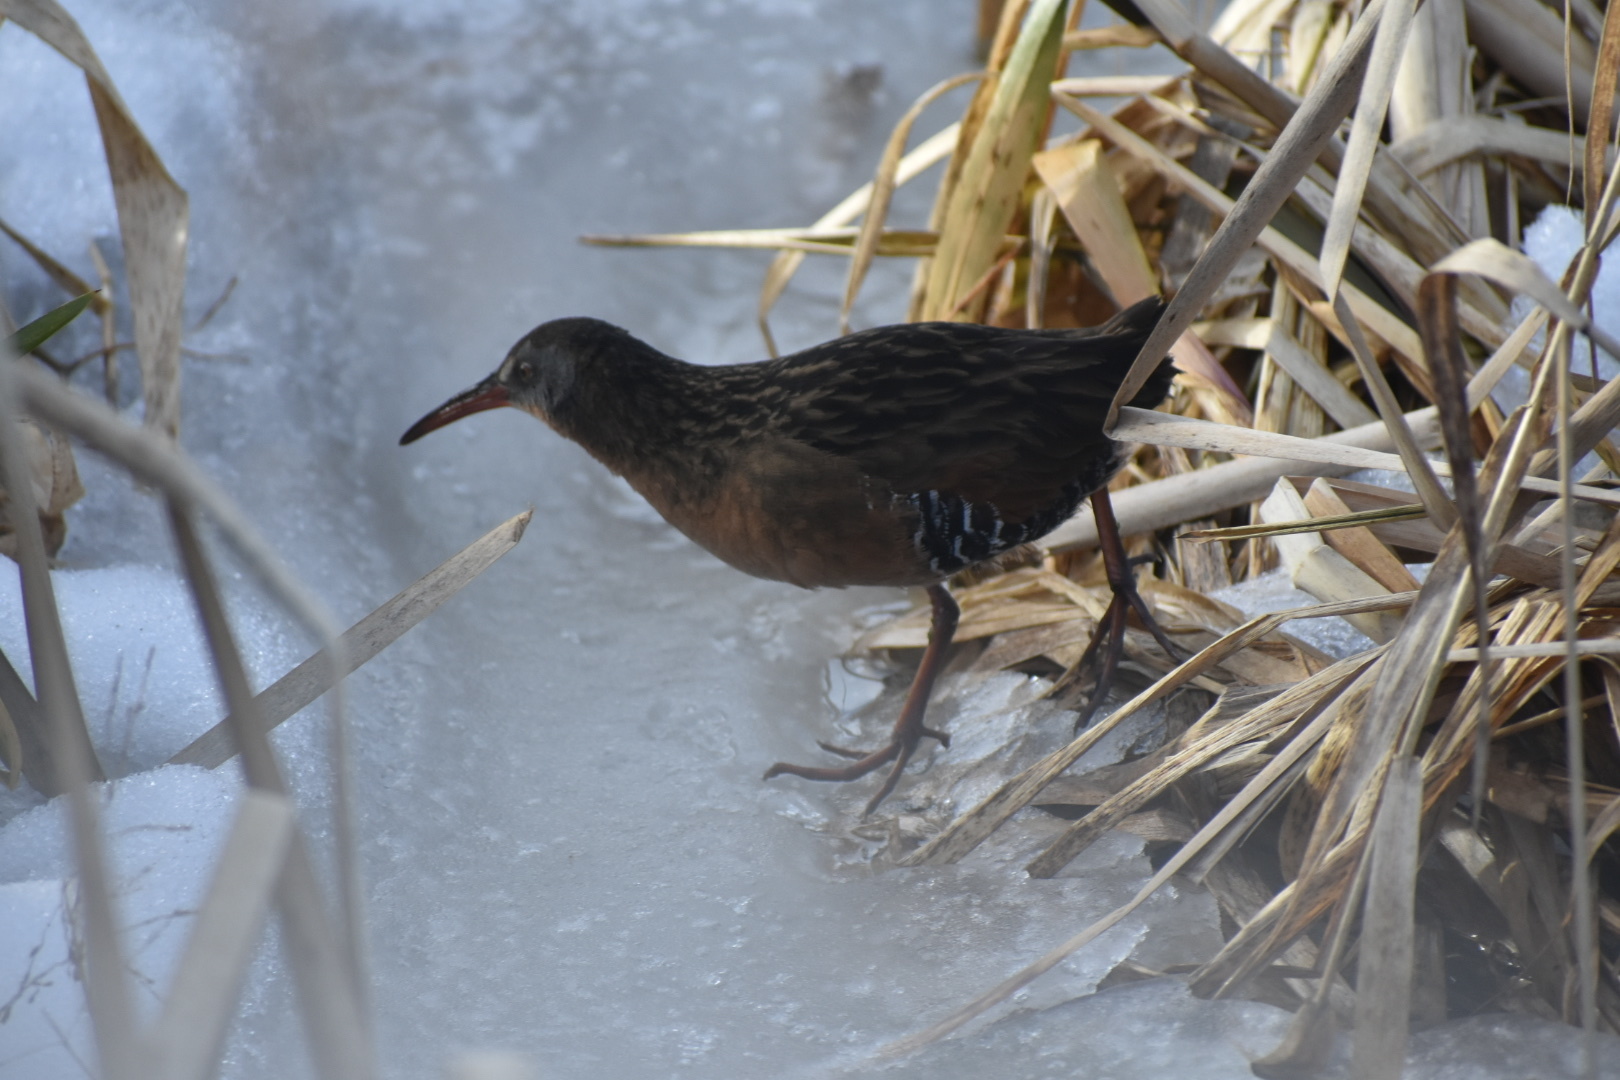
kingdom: Animalia
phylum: Chordata
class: Aves
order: Gruiformes
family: Rallidae
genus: Rallus
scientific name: Rallus limicola
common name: Virginia rail
